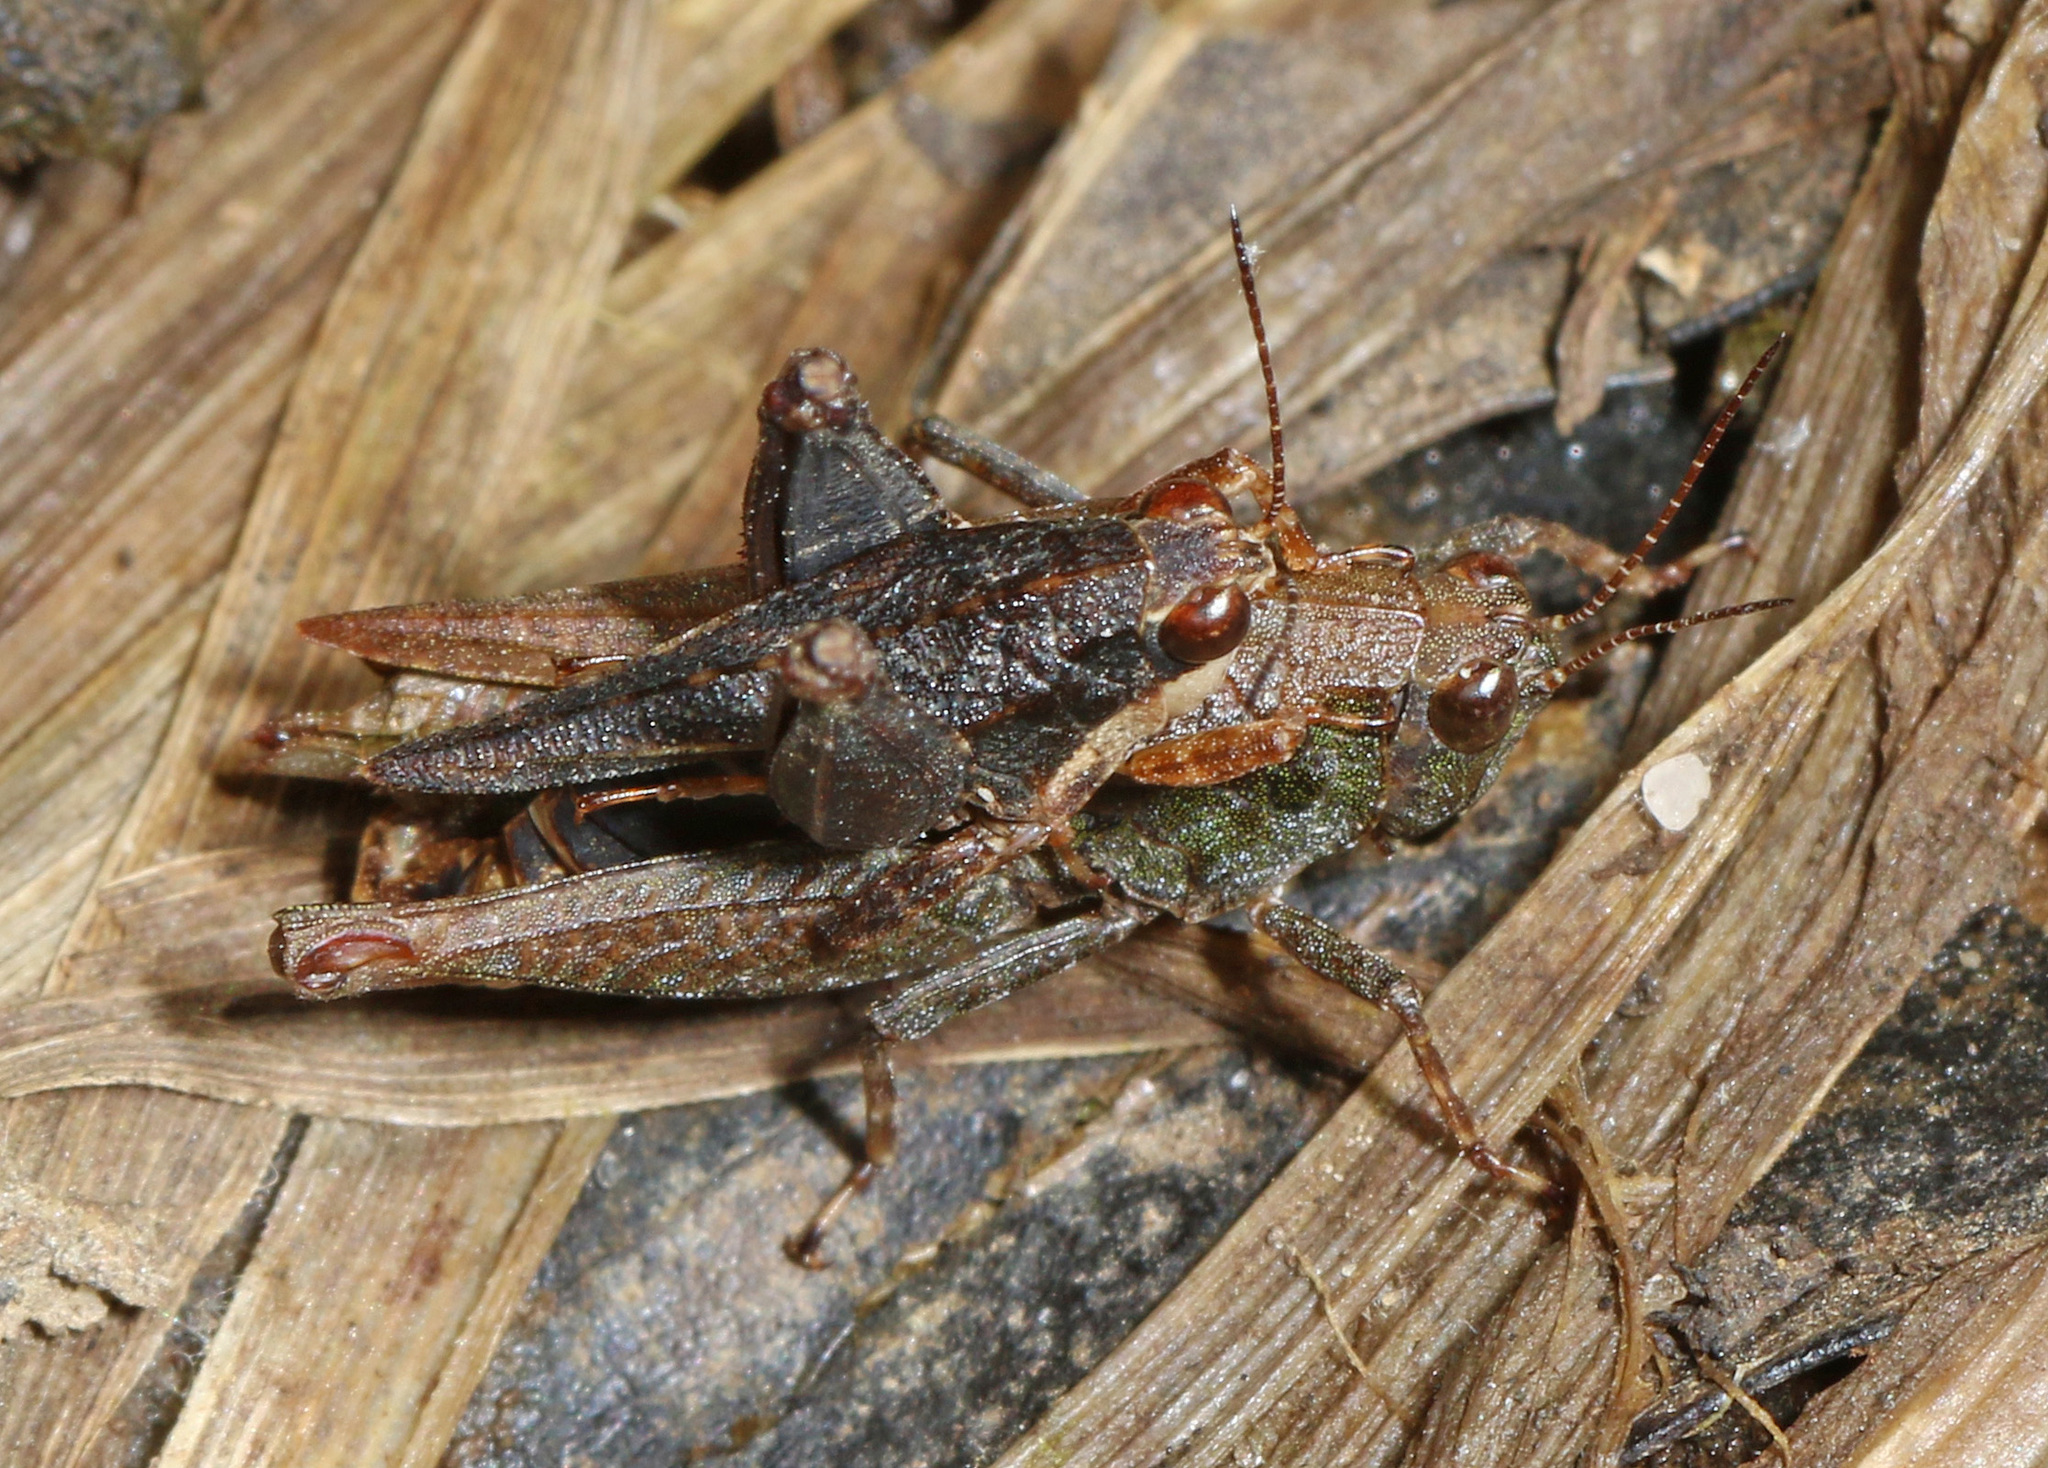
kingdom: Animalia
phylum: Arthropoda
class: Insecta
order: Orthoptera
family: Tetrigidae
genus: Tettigidea
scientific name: Tettigidea laterale
